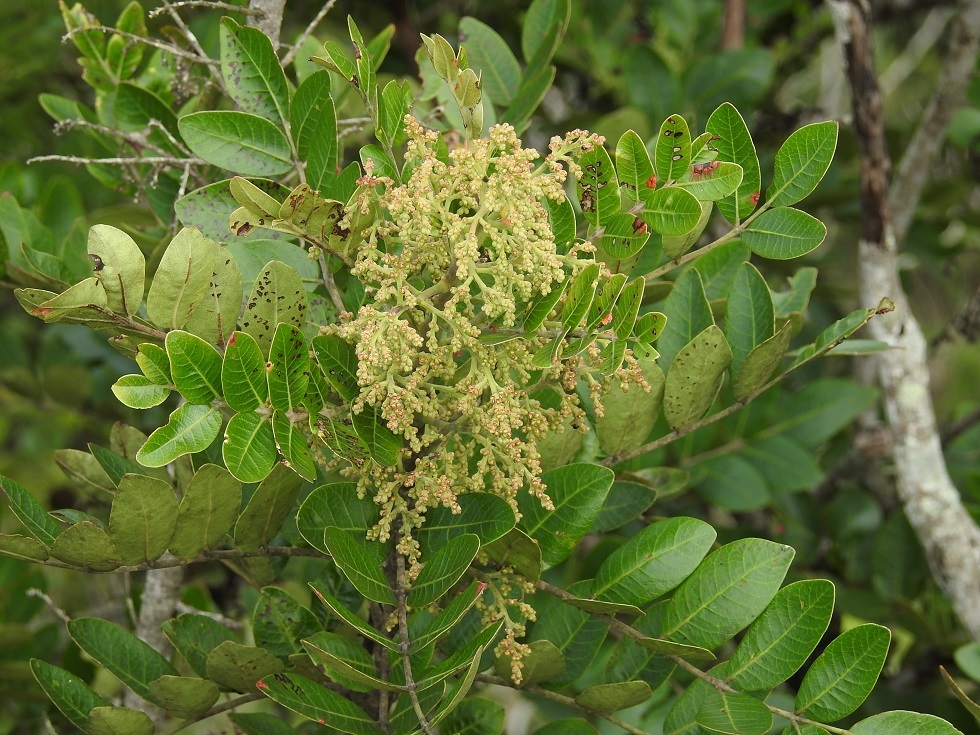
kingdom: Plantae
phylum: Tracheophyta
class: Magnoliopsida
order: Sapindales
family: Anacardiaceae
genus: Rhus
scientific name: Rhus schiedeana
